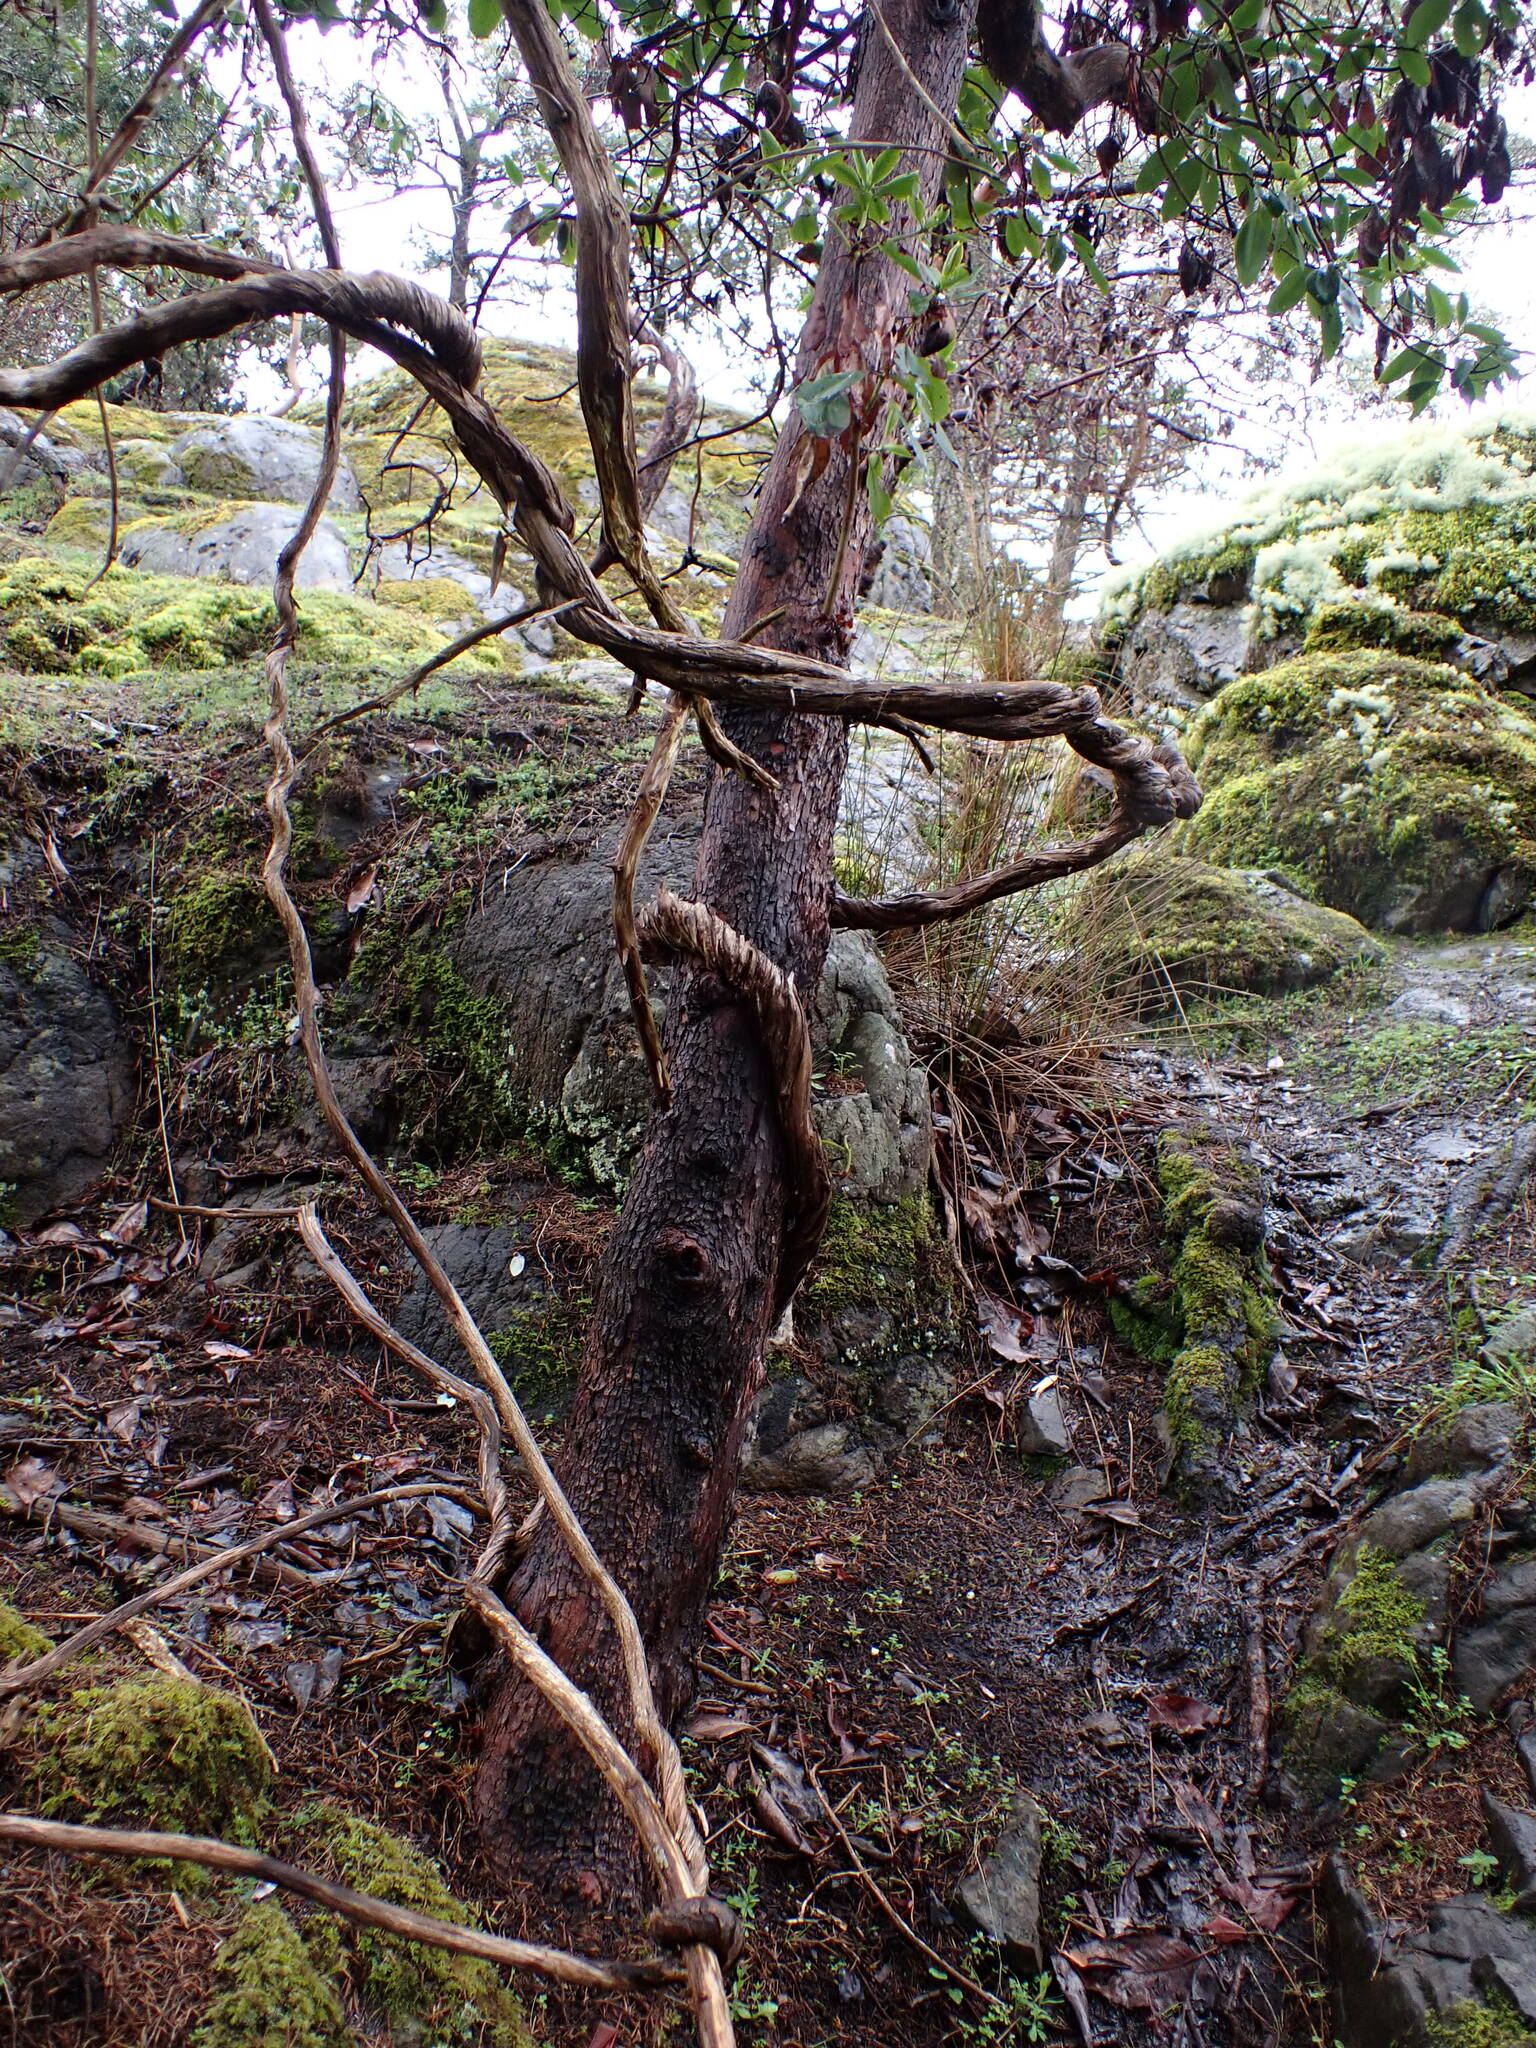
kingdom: Plantae
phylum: Tracheophyta
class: Magnoliopsida
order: Ericales
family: Ericaceae
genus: Arbutus
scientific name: Arbutus menziesii
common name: Pacific madrone
